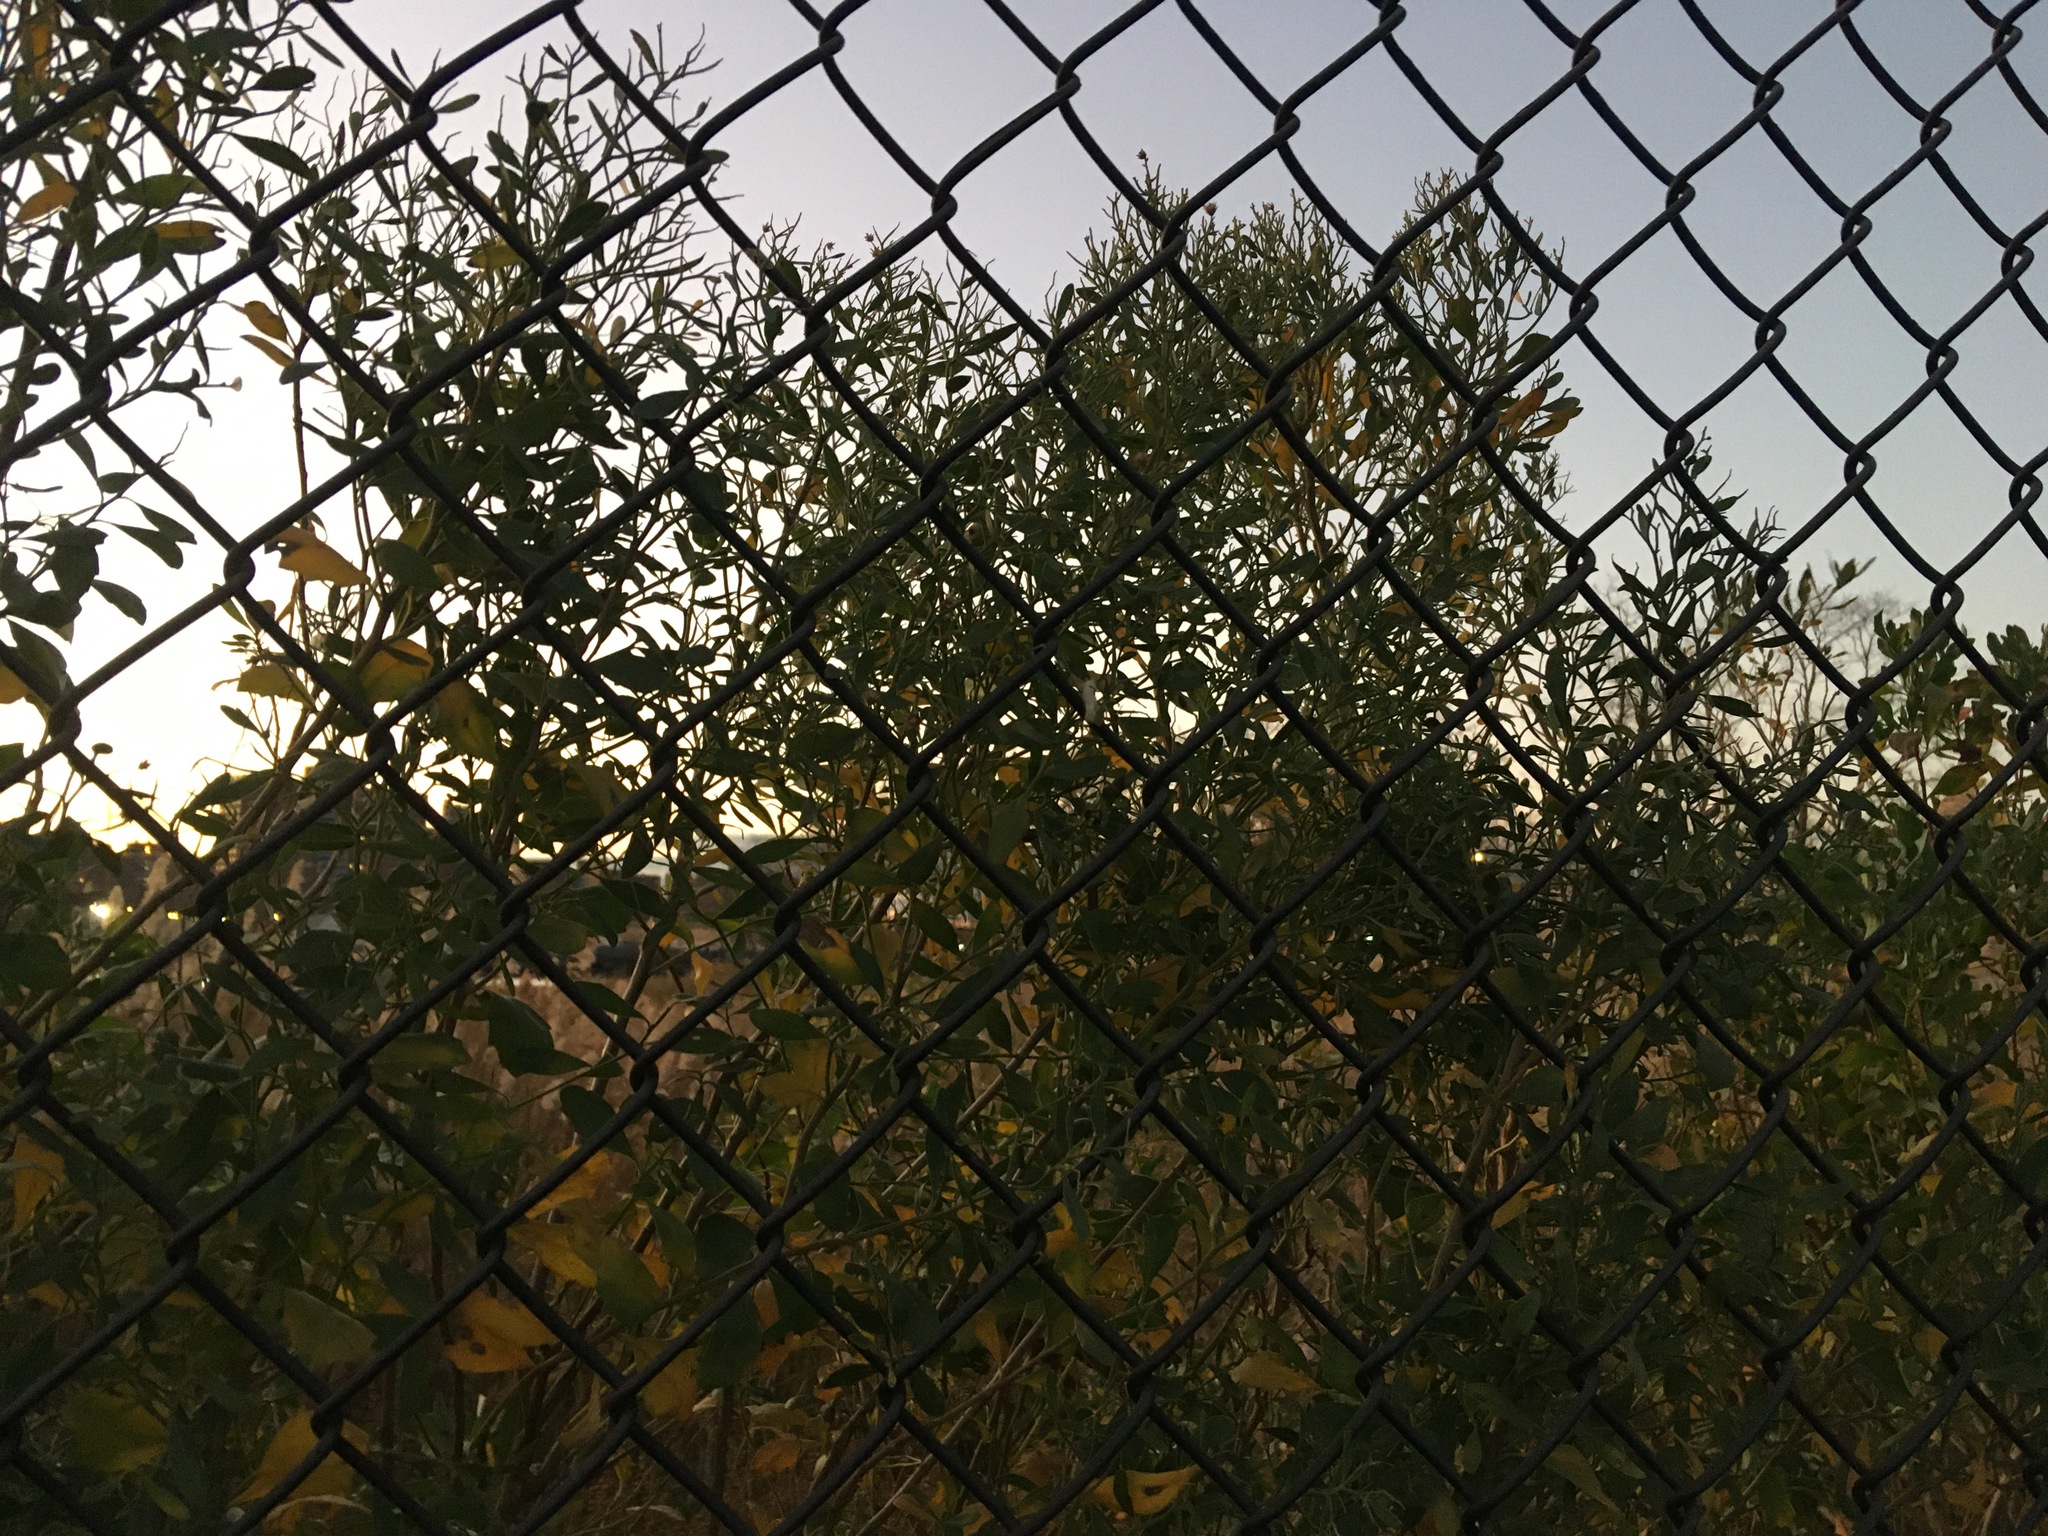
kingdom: Plantae
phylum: Tracheophyta
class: Magnoliopsida
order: Asterales
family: Asteraceae
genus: Baccharis
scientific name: Baccharis halimifolia
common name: Eastern baccharis
